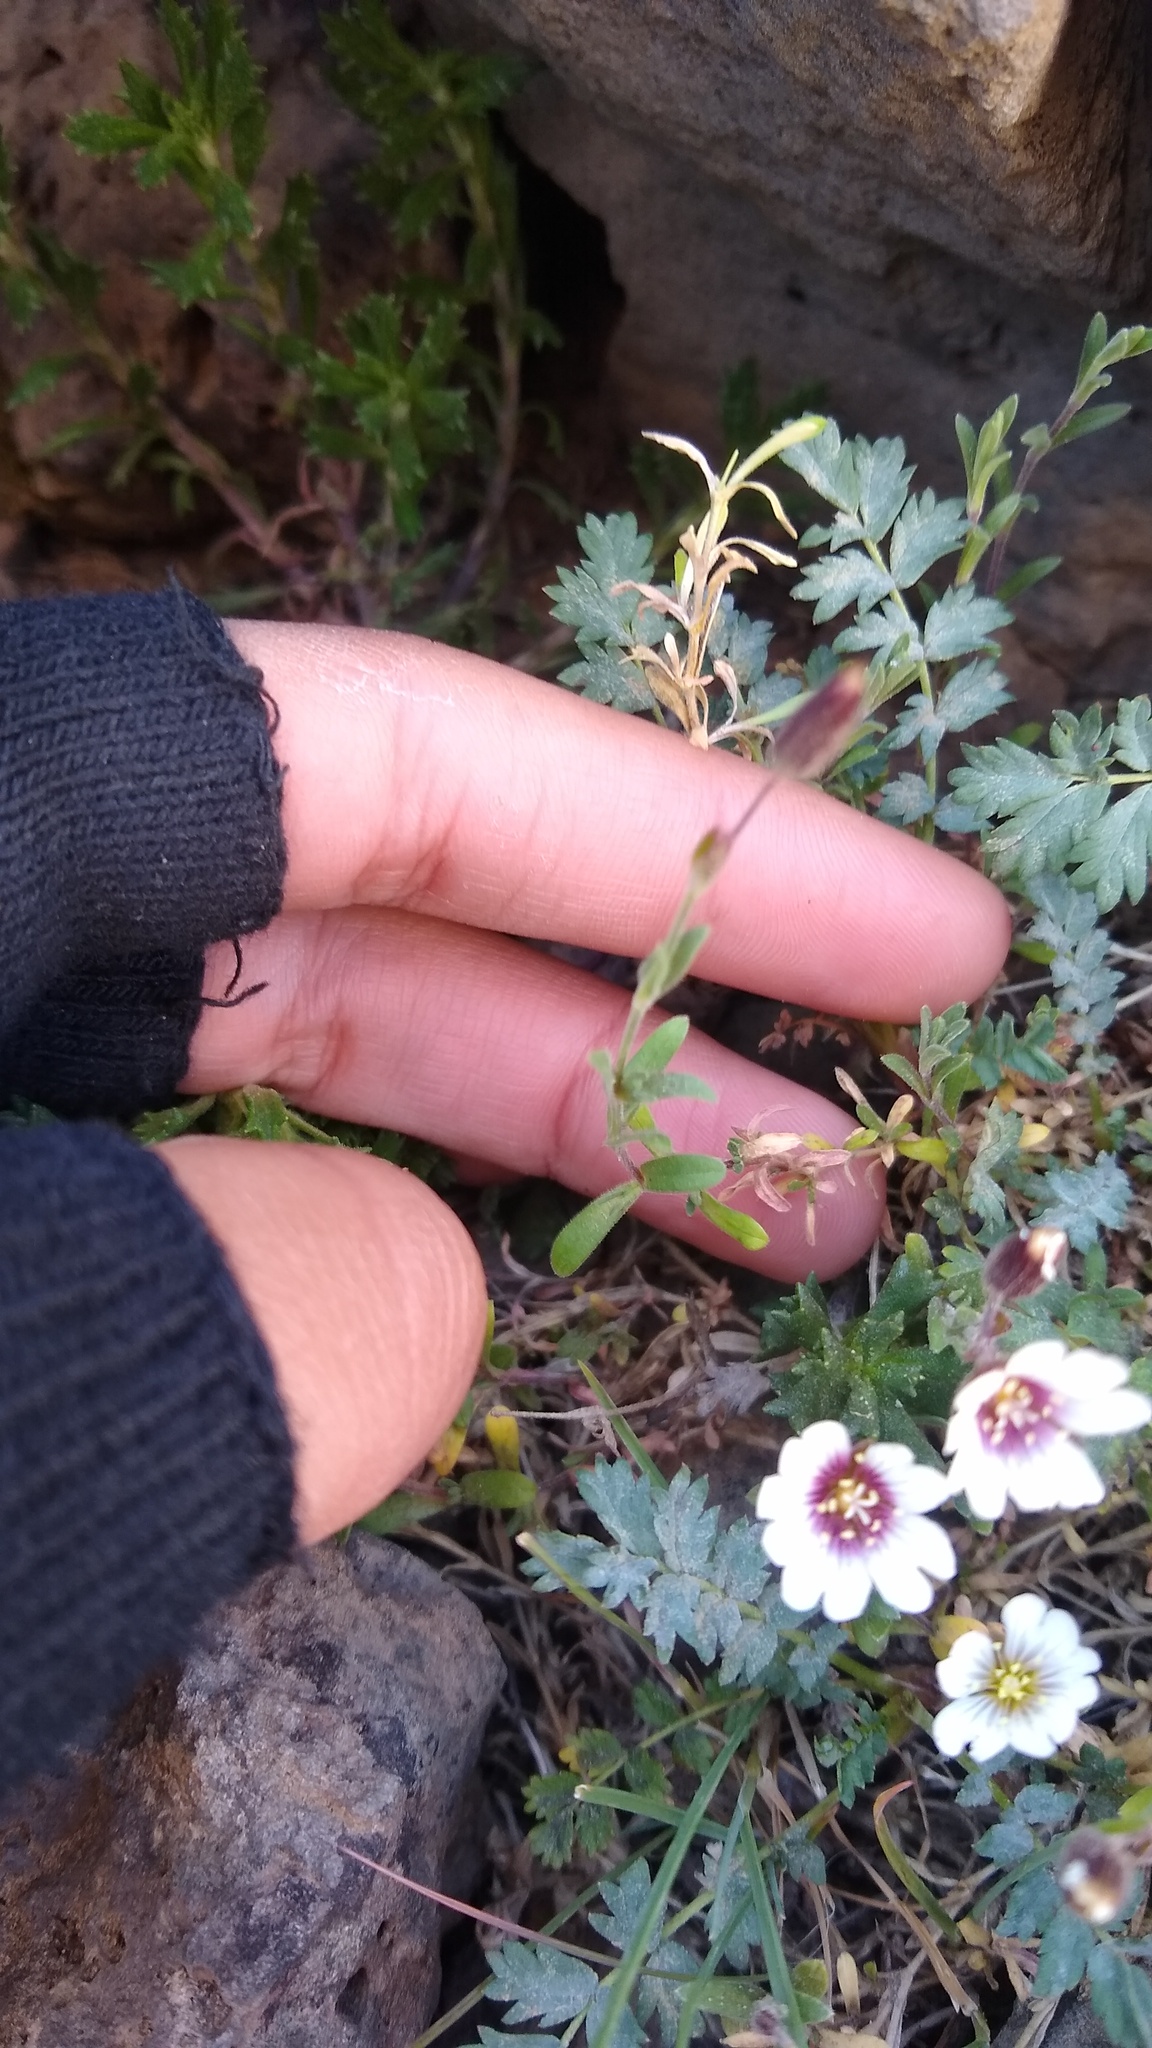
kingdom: Plantae
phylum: Tracheophyta
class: Magnoliopsida
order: Caryophyllales
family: Caryophyllaceae
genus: Cerastium
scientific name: Cerastium arvense
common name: Field mouse-ear
